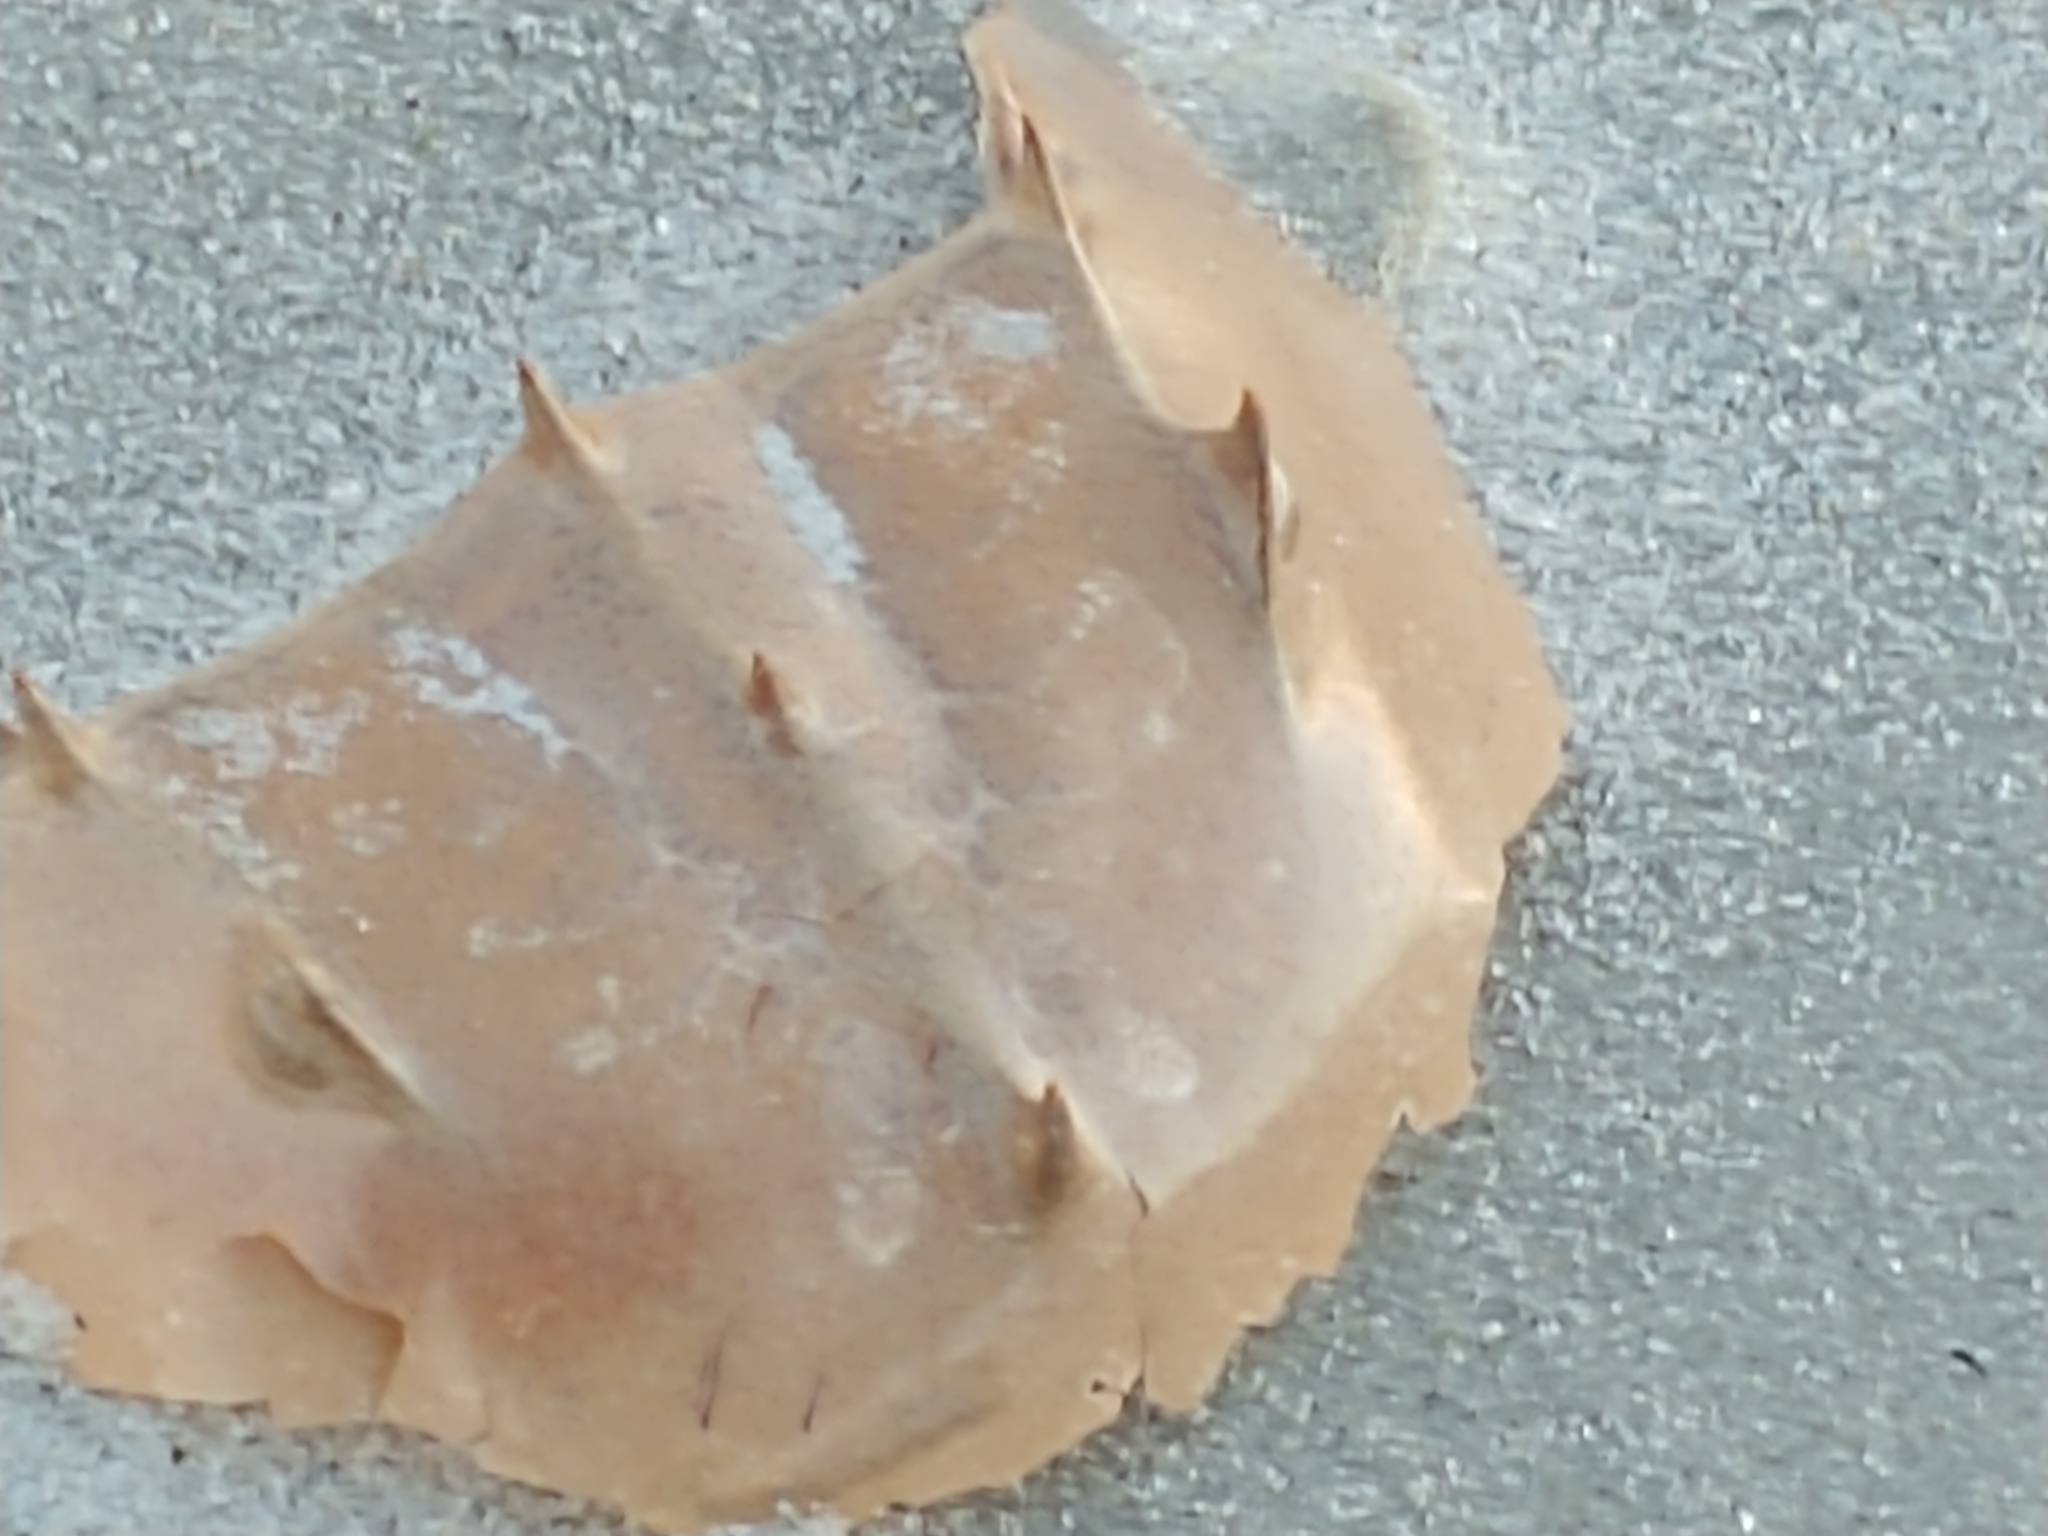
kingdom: Animalia
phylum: Arthropoda
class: Merostomata
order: Xiphosurida
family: Limulidae
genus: Limulus
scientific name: Limulus polyphemus
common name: Horseshoe crab
